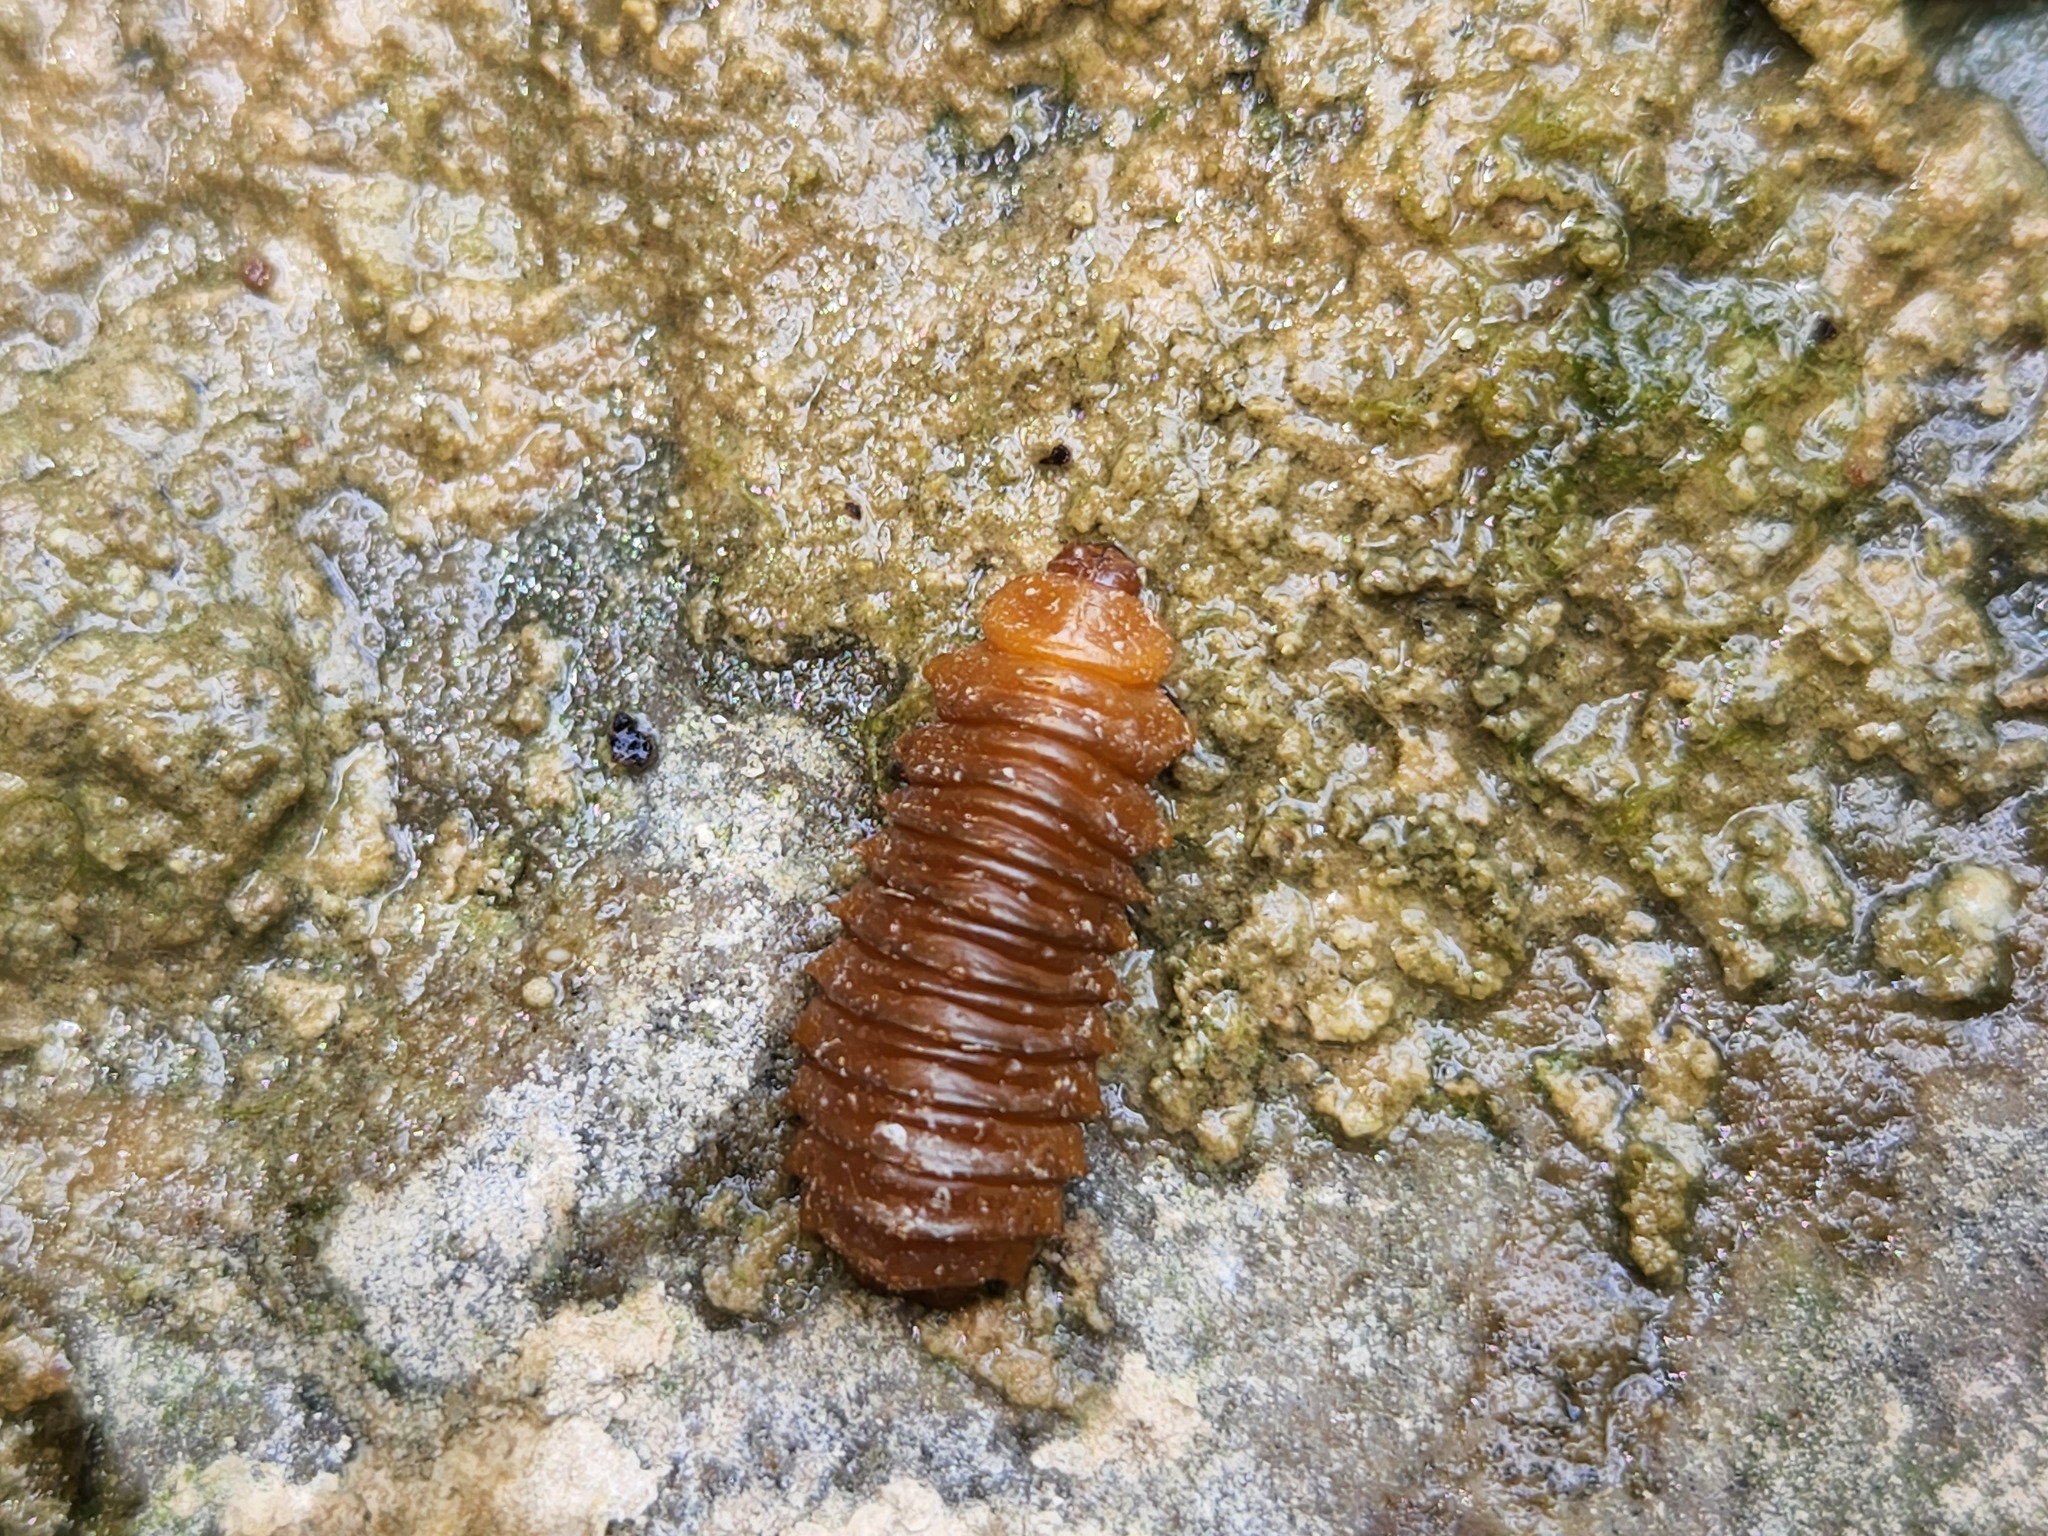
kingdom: Animalia
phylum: Arthropoda
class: Insecta
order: Coleoptera
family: Chrysomelidae
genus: Monocesta
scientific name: Monocesta coryli
